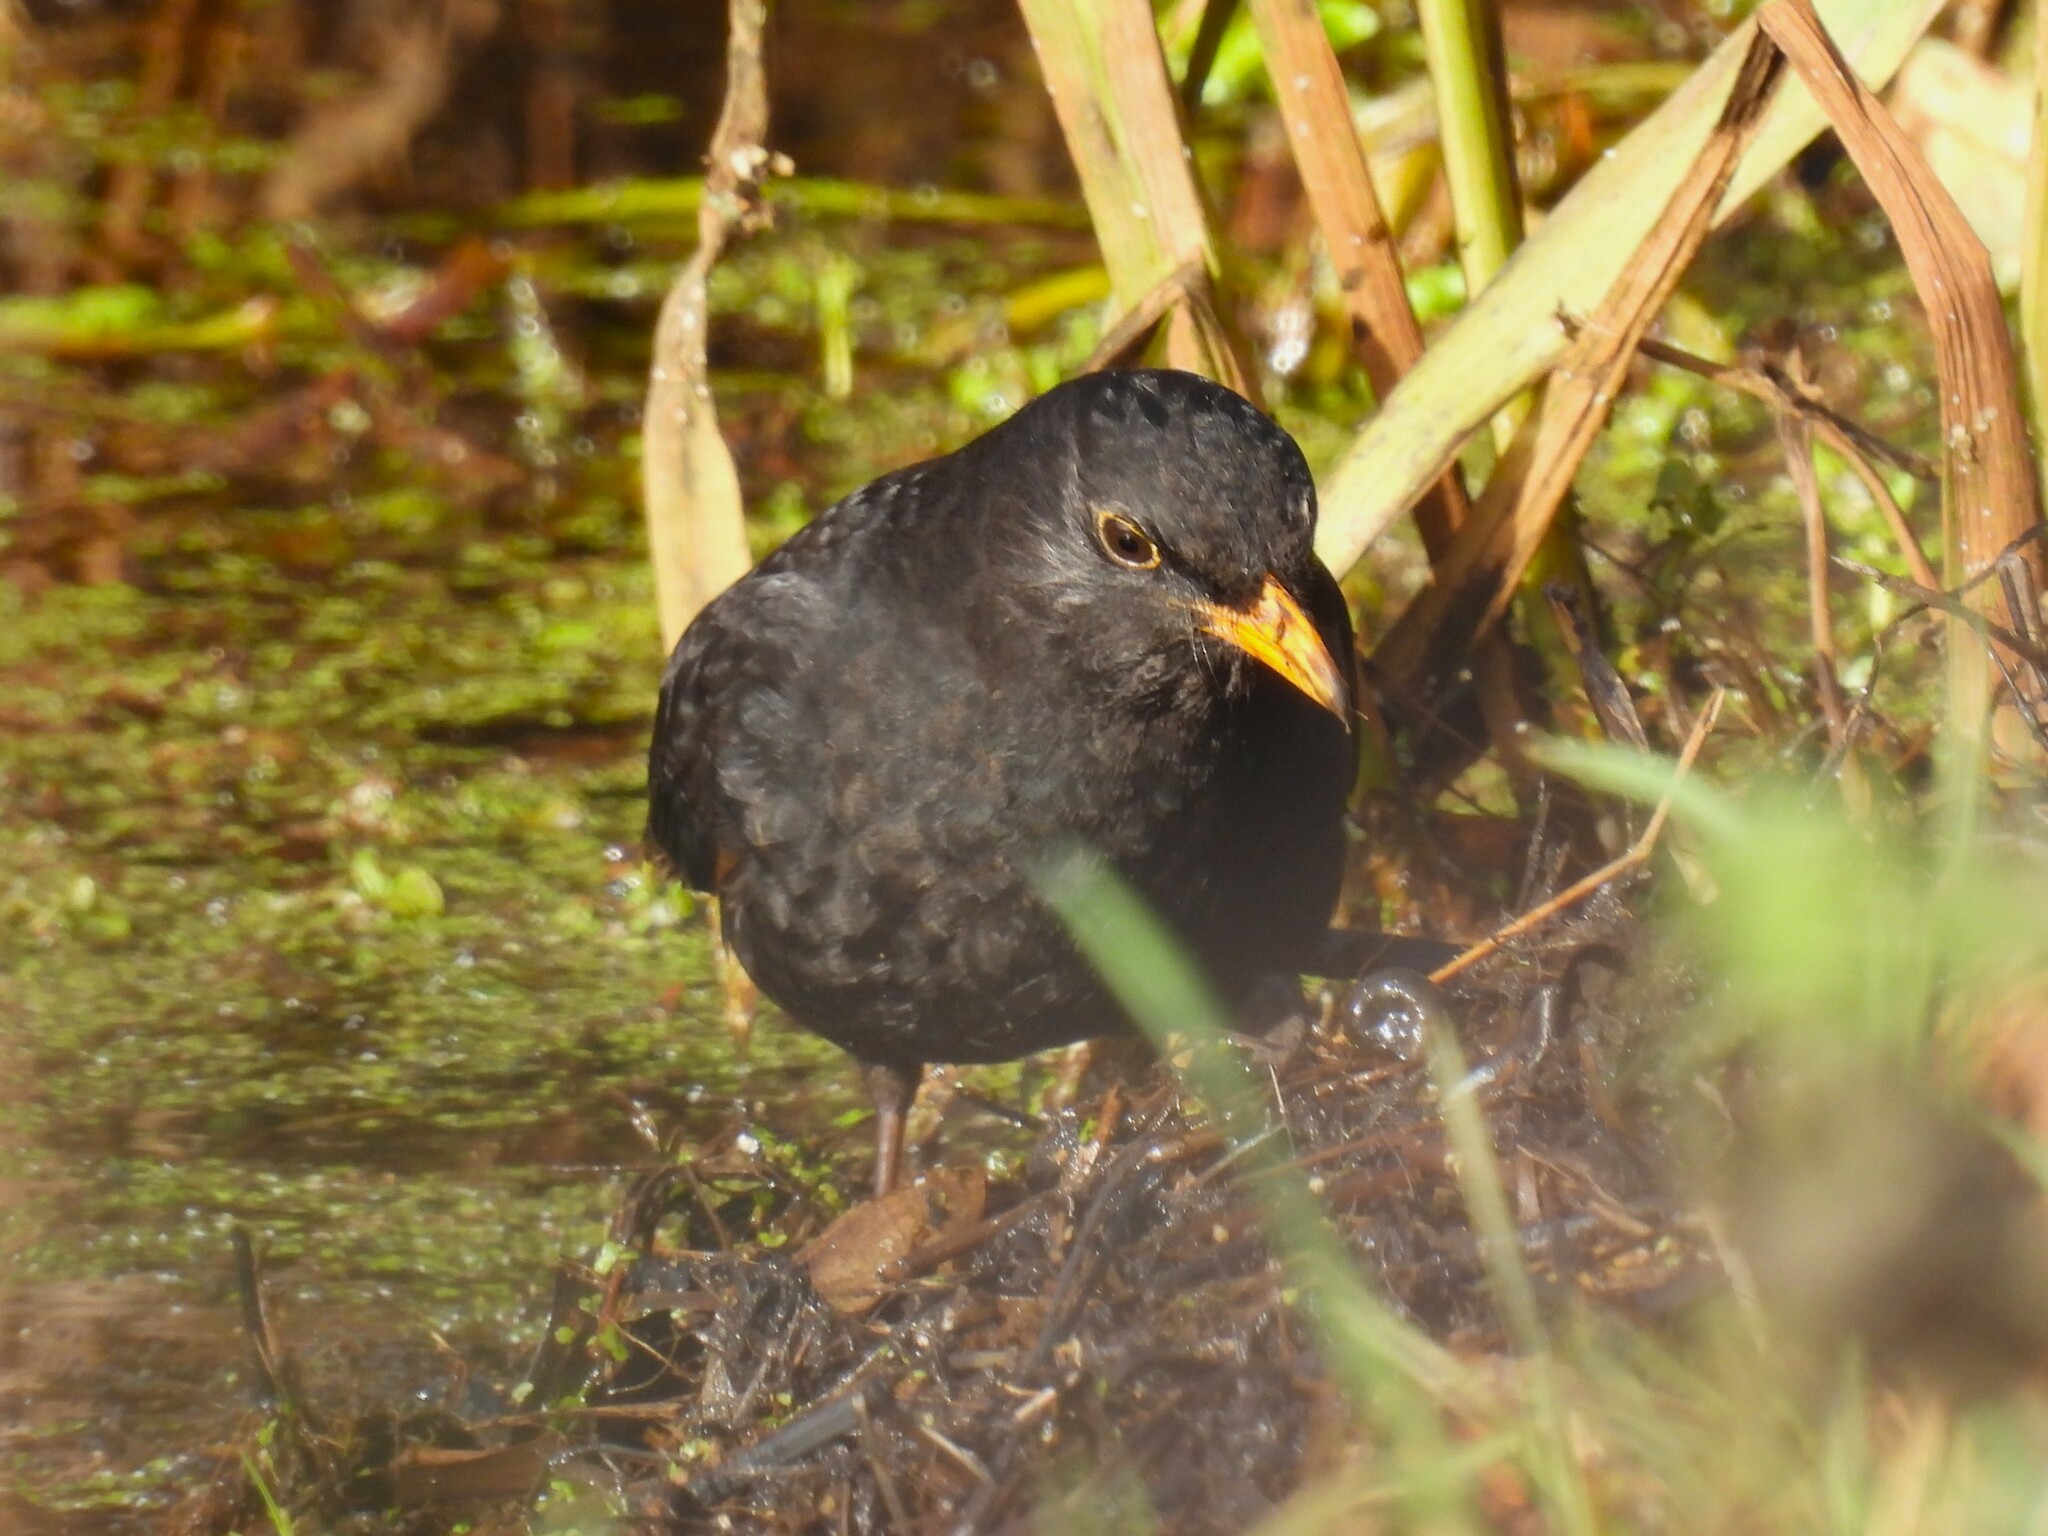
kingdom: Animalia
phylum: Chordata
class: Aves
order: Passeriformes
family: Turdidae
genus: Turdus
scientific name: Turdus merula
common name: Common blackbird
